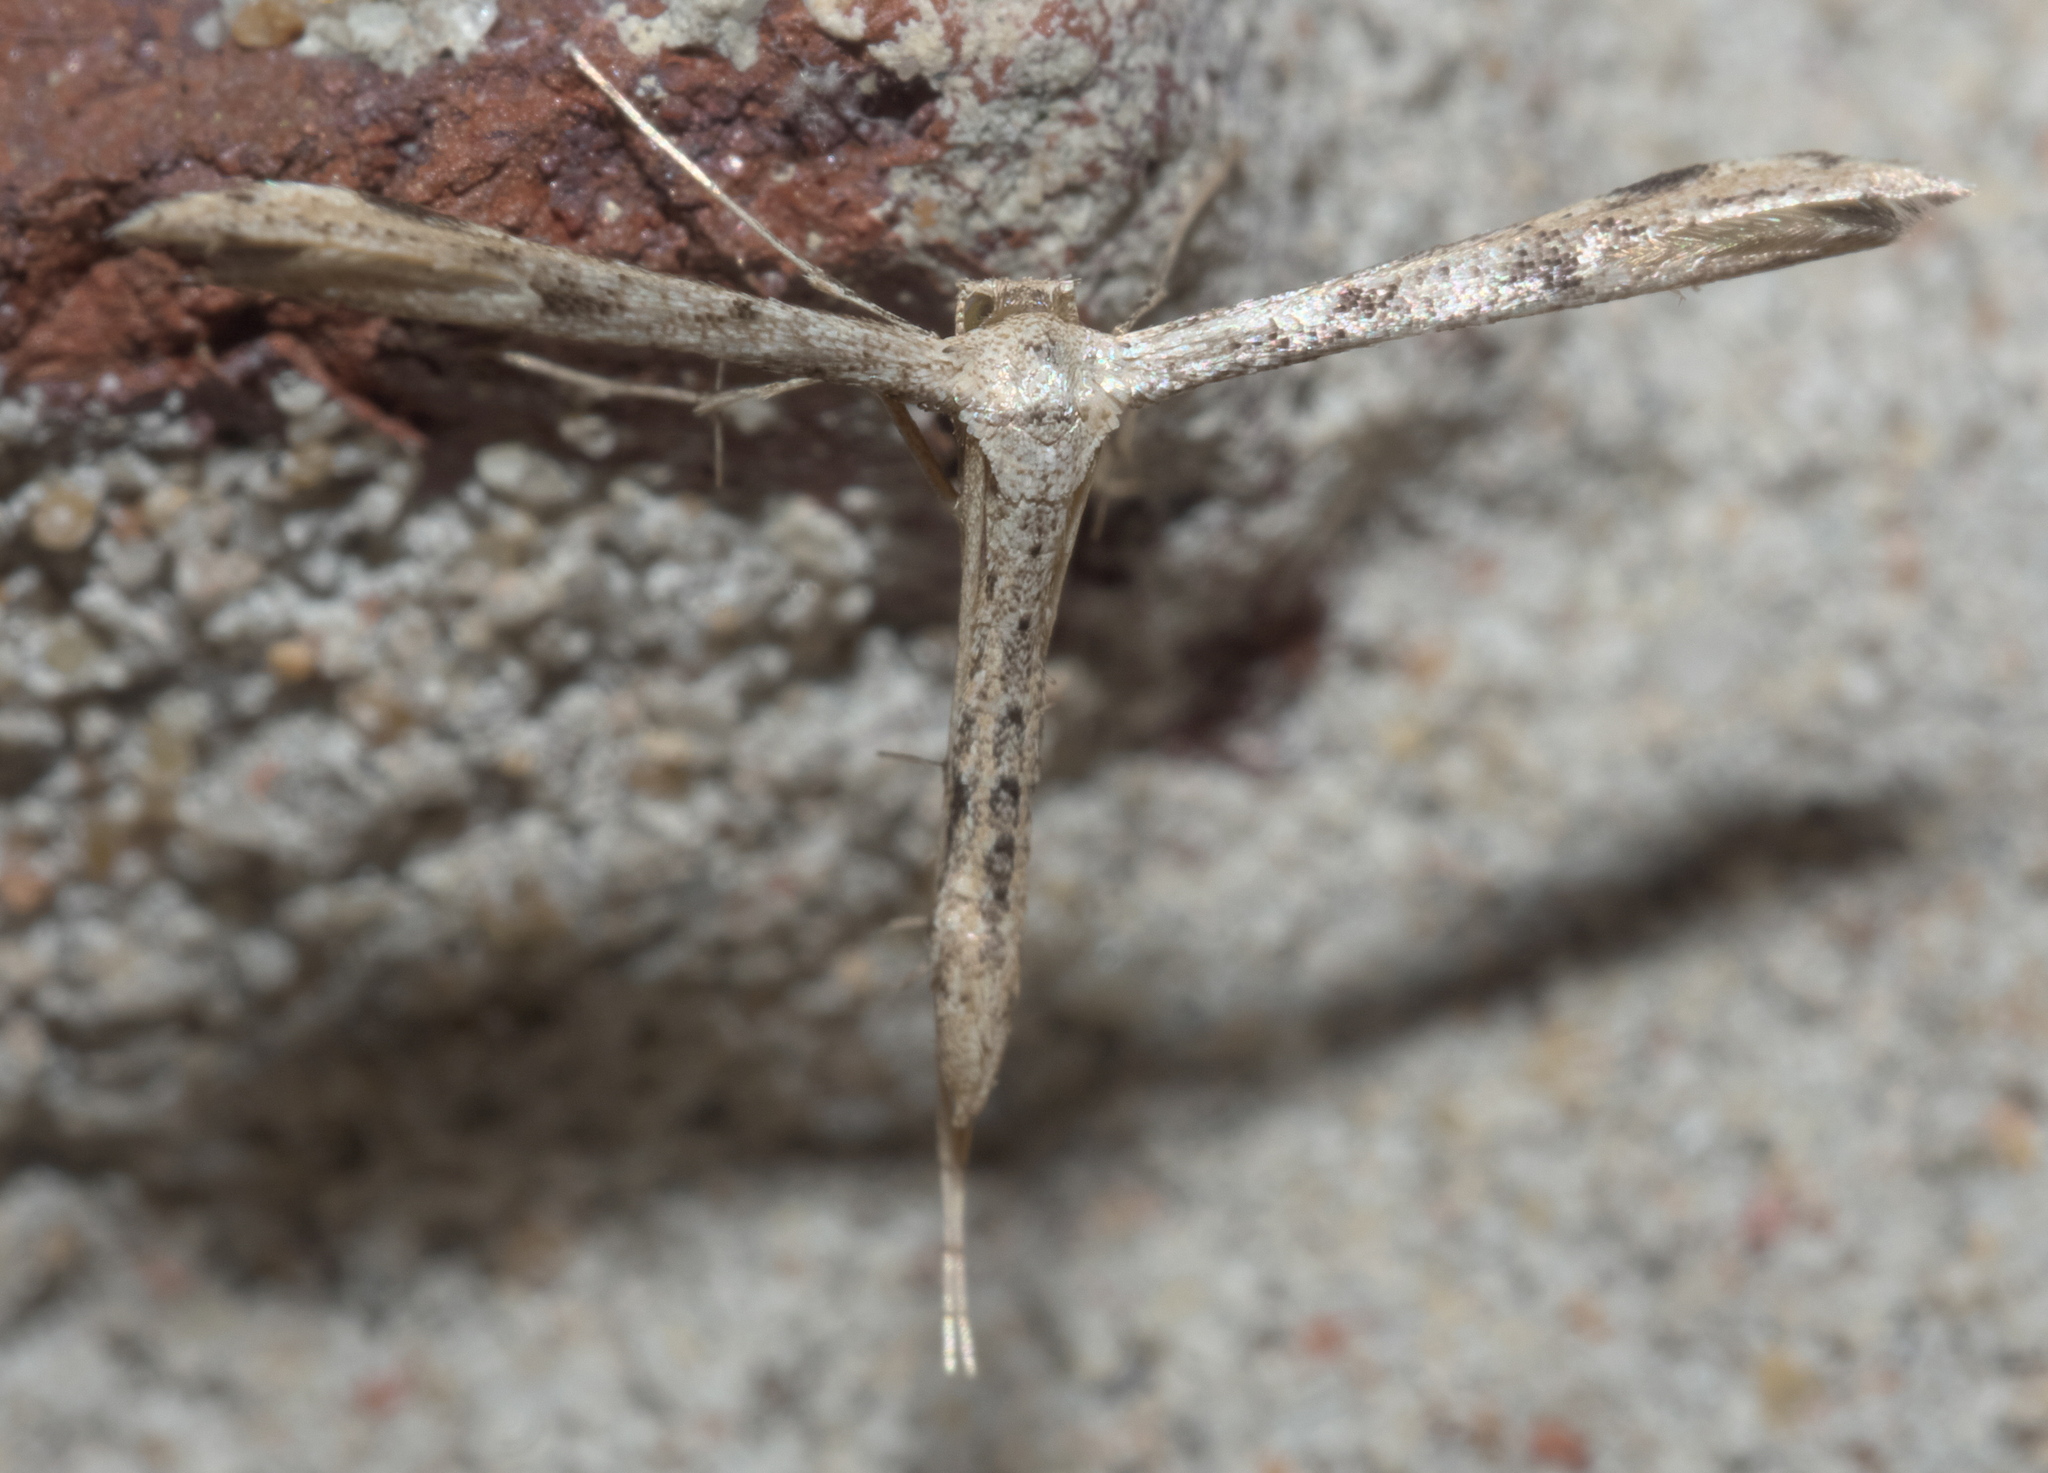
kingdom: Animalia
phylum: Arthropoda
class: Insecta
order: Lepidoptera
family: Pterophoridae
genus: Adaina
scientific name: Adaina ambrosiae
